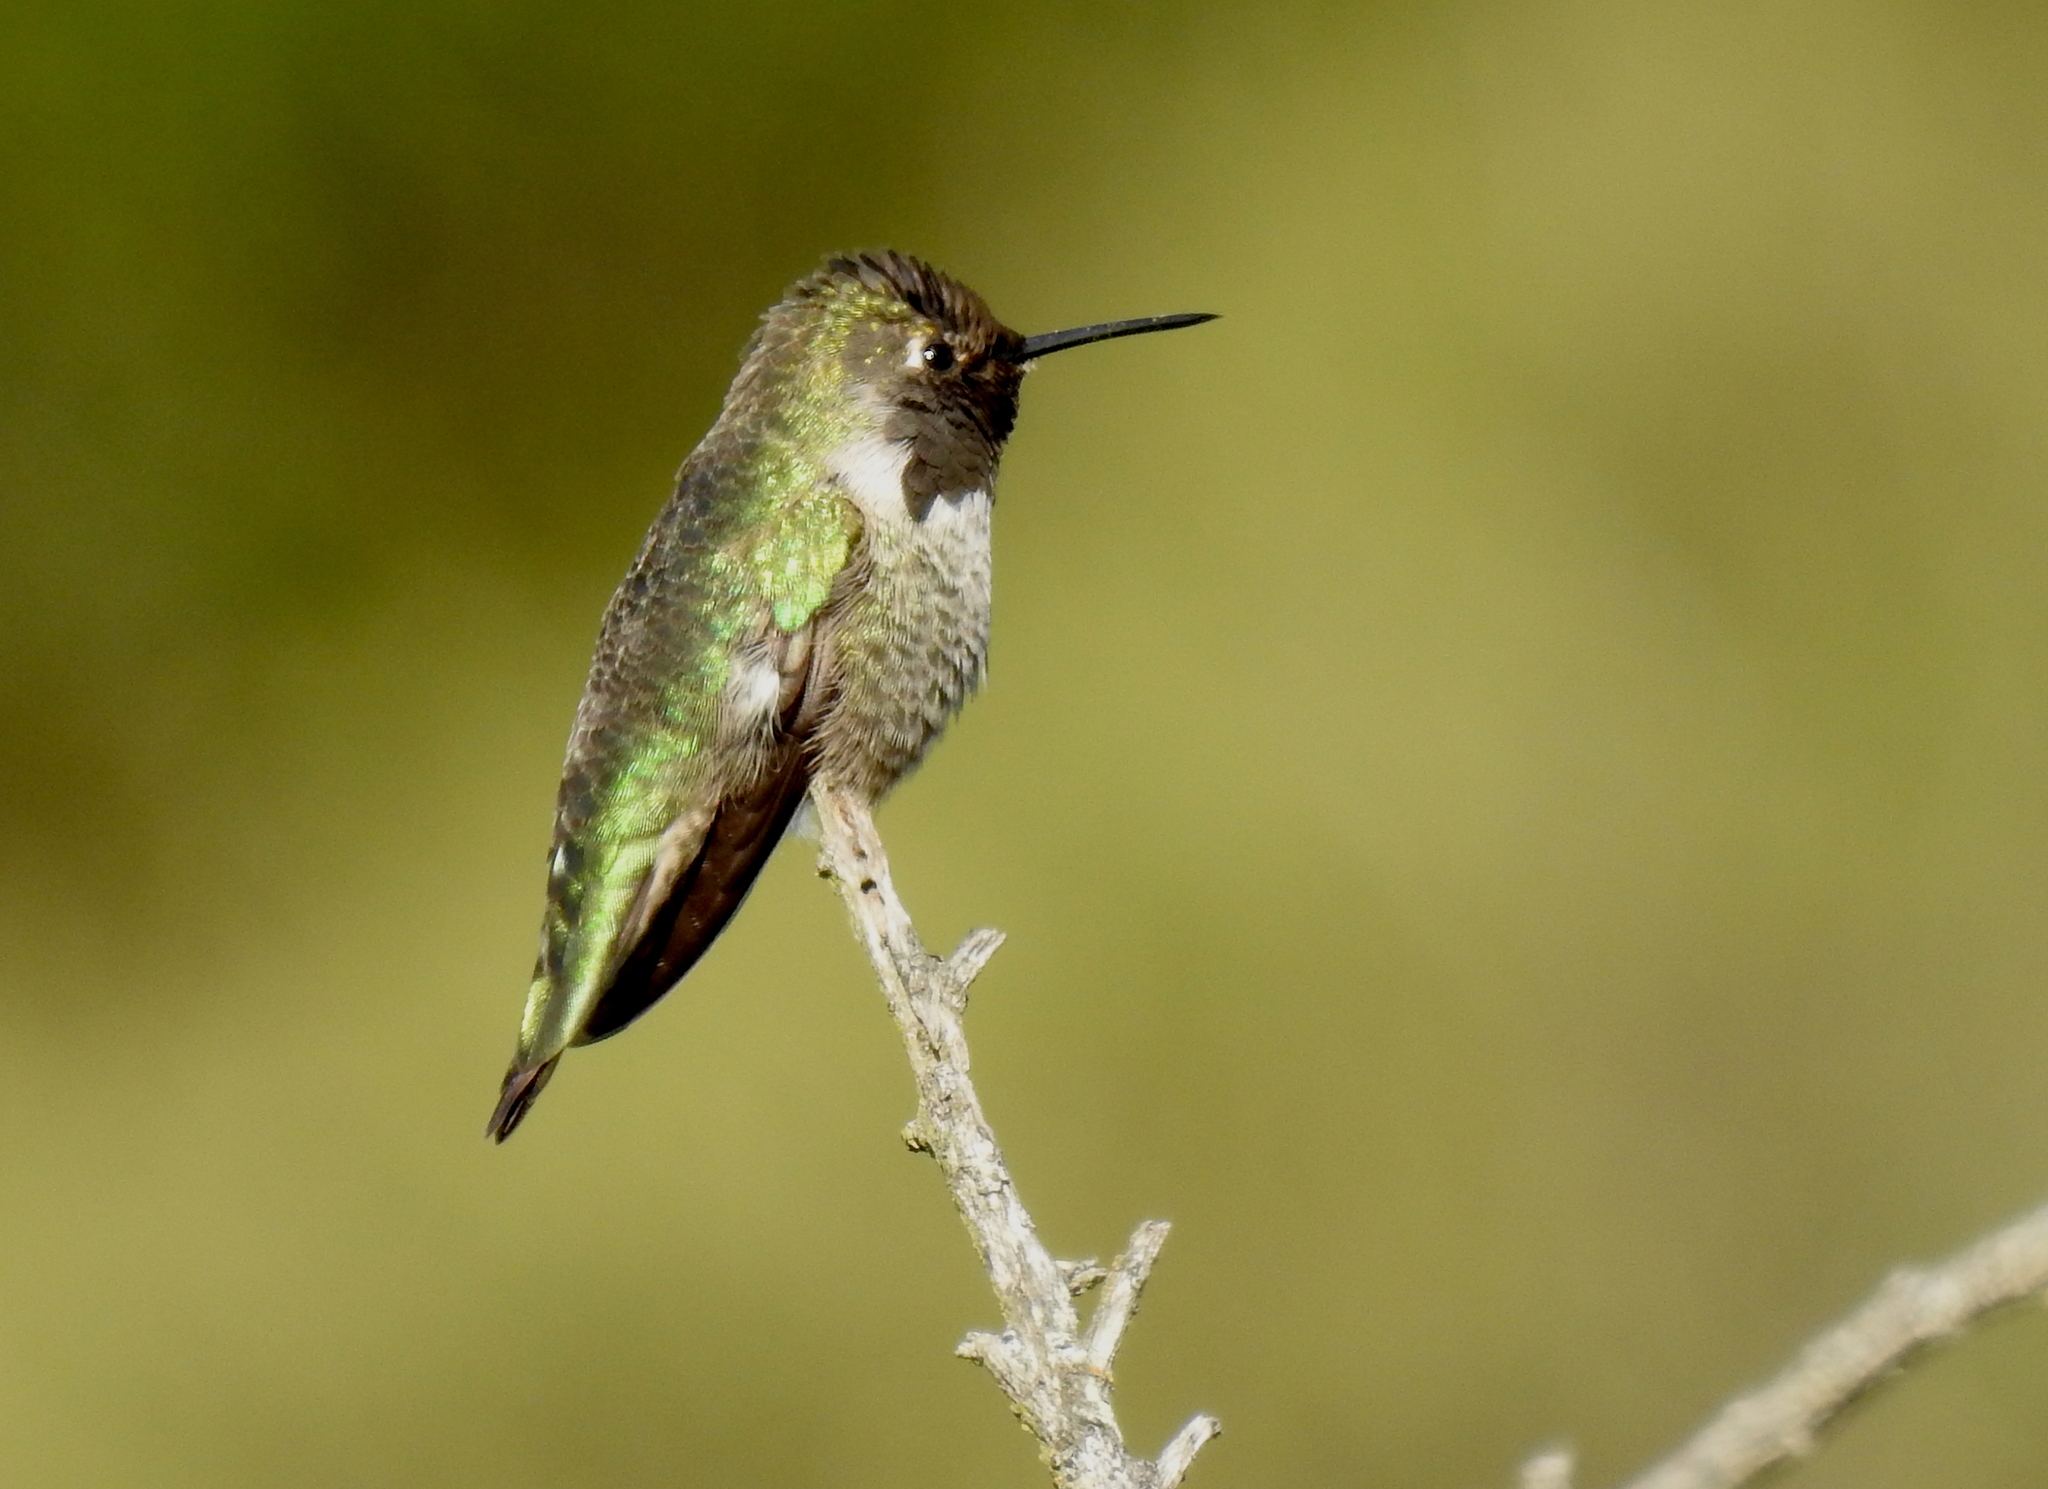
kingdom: Animalia
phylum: Chordata
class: Aves
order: Apodiformes
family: Trochilidae
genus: Calypte
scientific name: Calypte anna
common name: Anna's hummingbird
